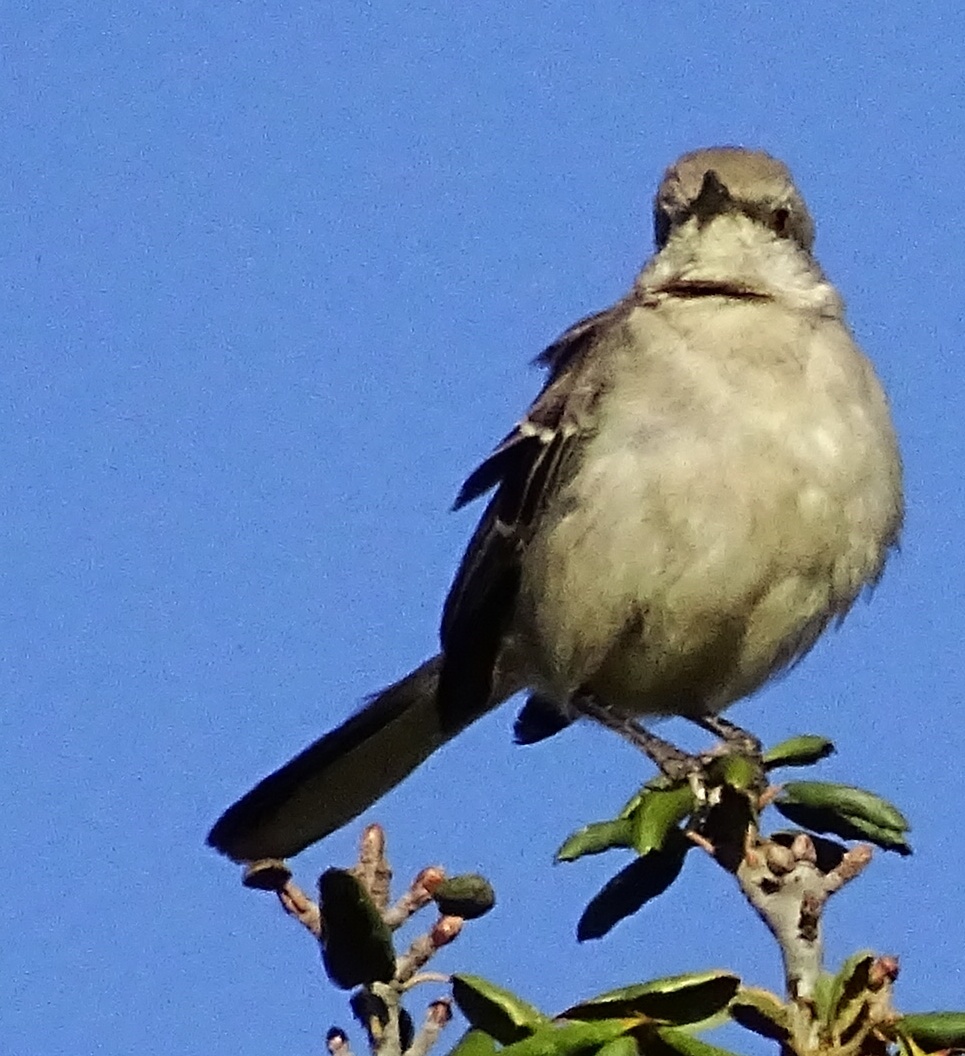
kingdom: Animalia
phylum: Chordata
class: Aves
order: Passeriformes
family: Mimidae
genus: Mimus
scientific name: Mimus polyglottos
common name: Northern mockingbird
